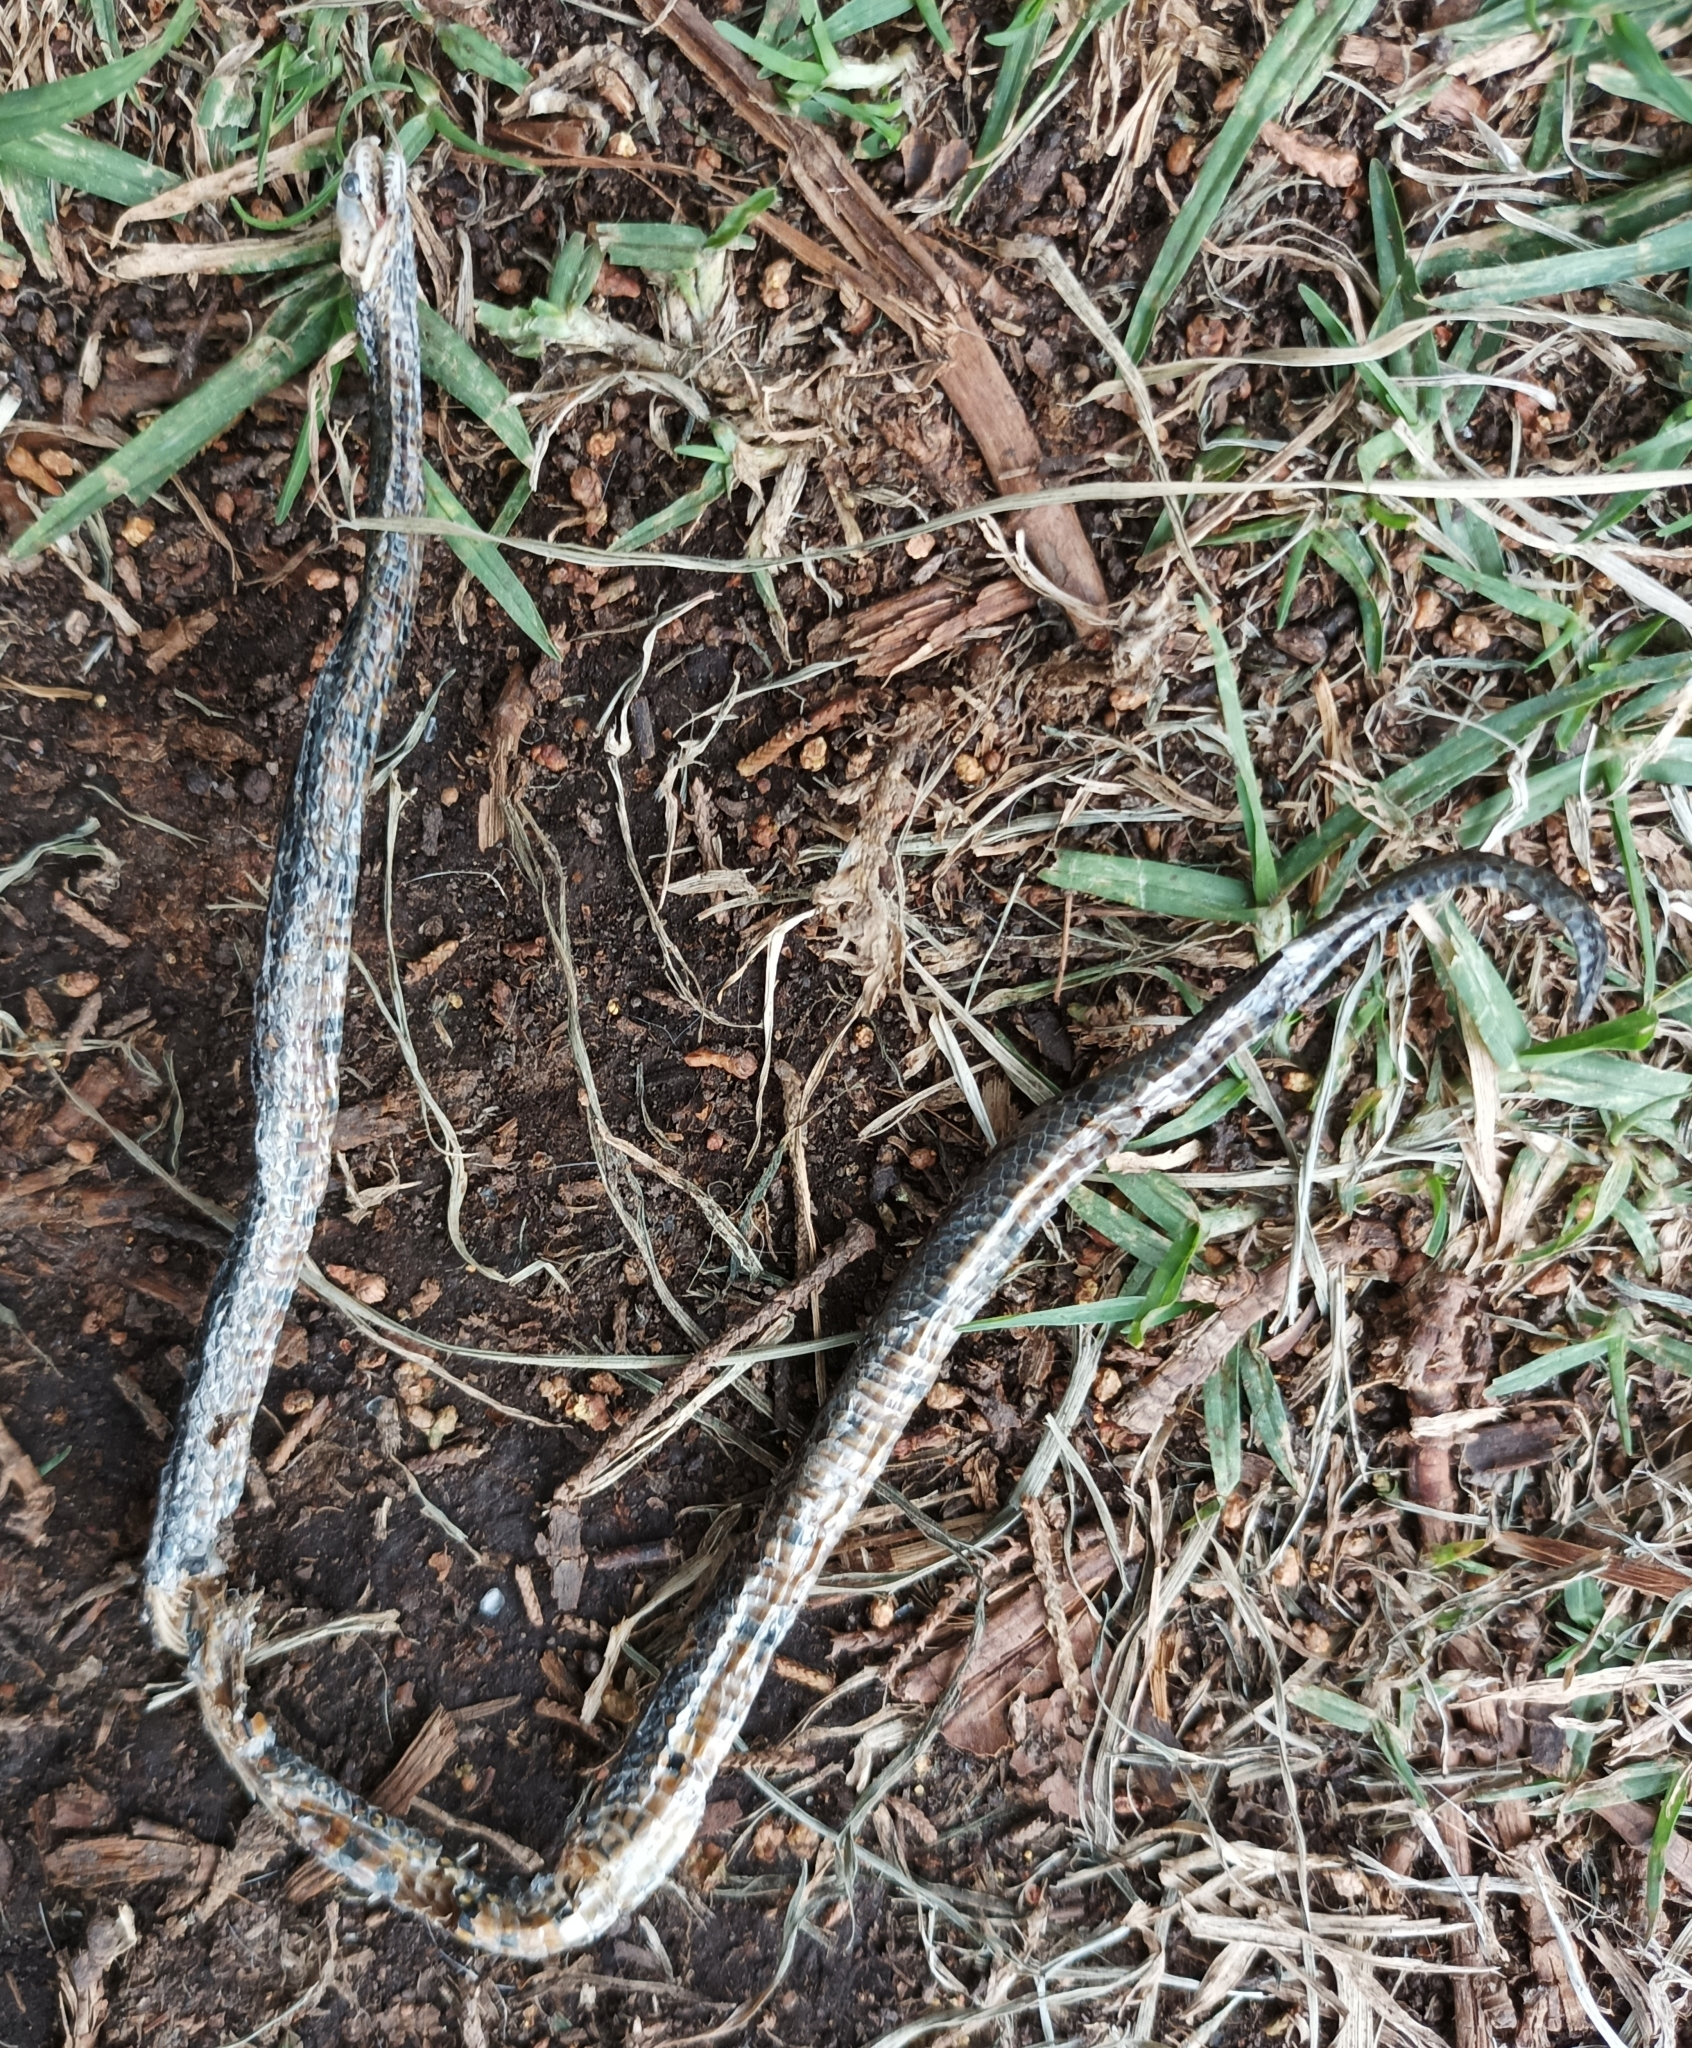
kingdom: Animalia
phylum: Chordata
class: Squamata
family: Colubridae
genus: Atractus
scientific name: Atractus crassicaudatus
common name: Thickhead ground snake
